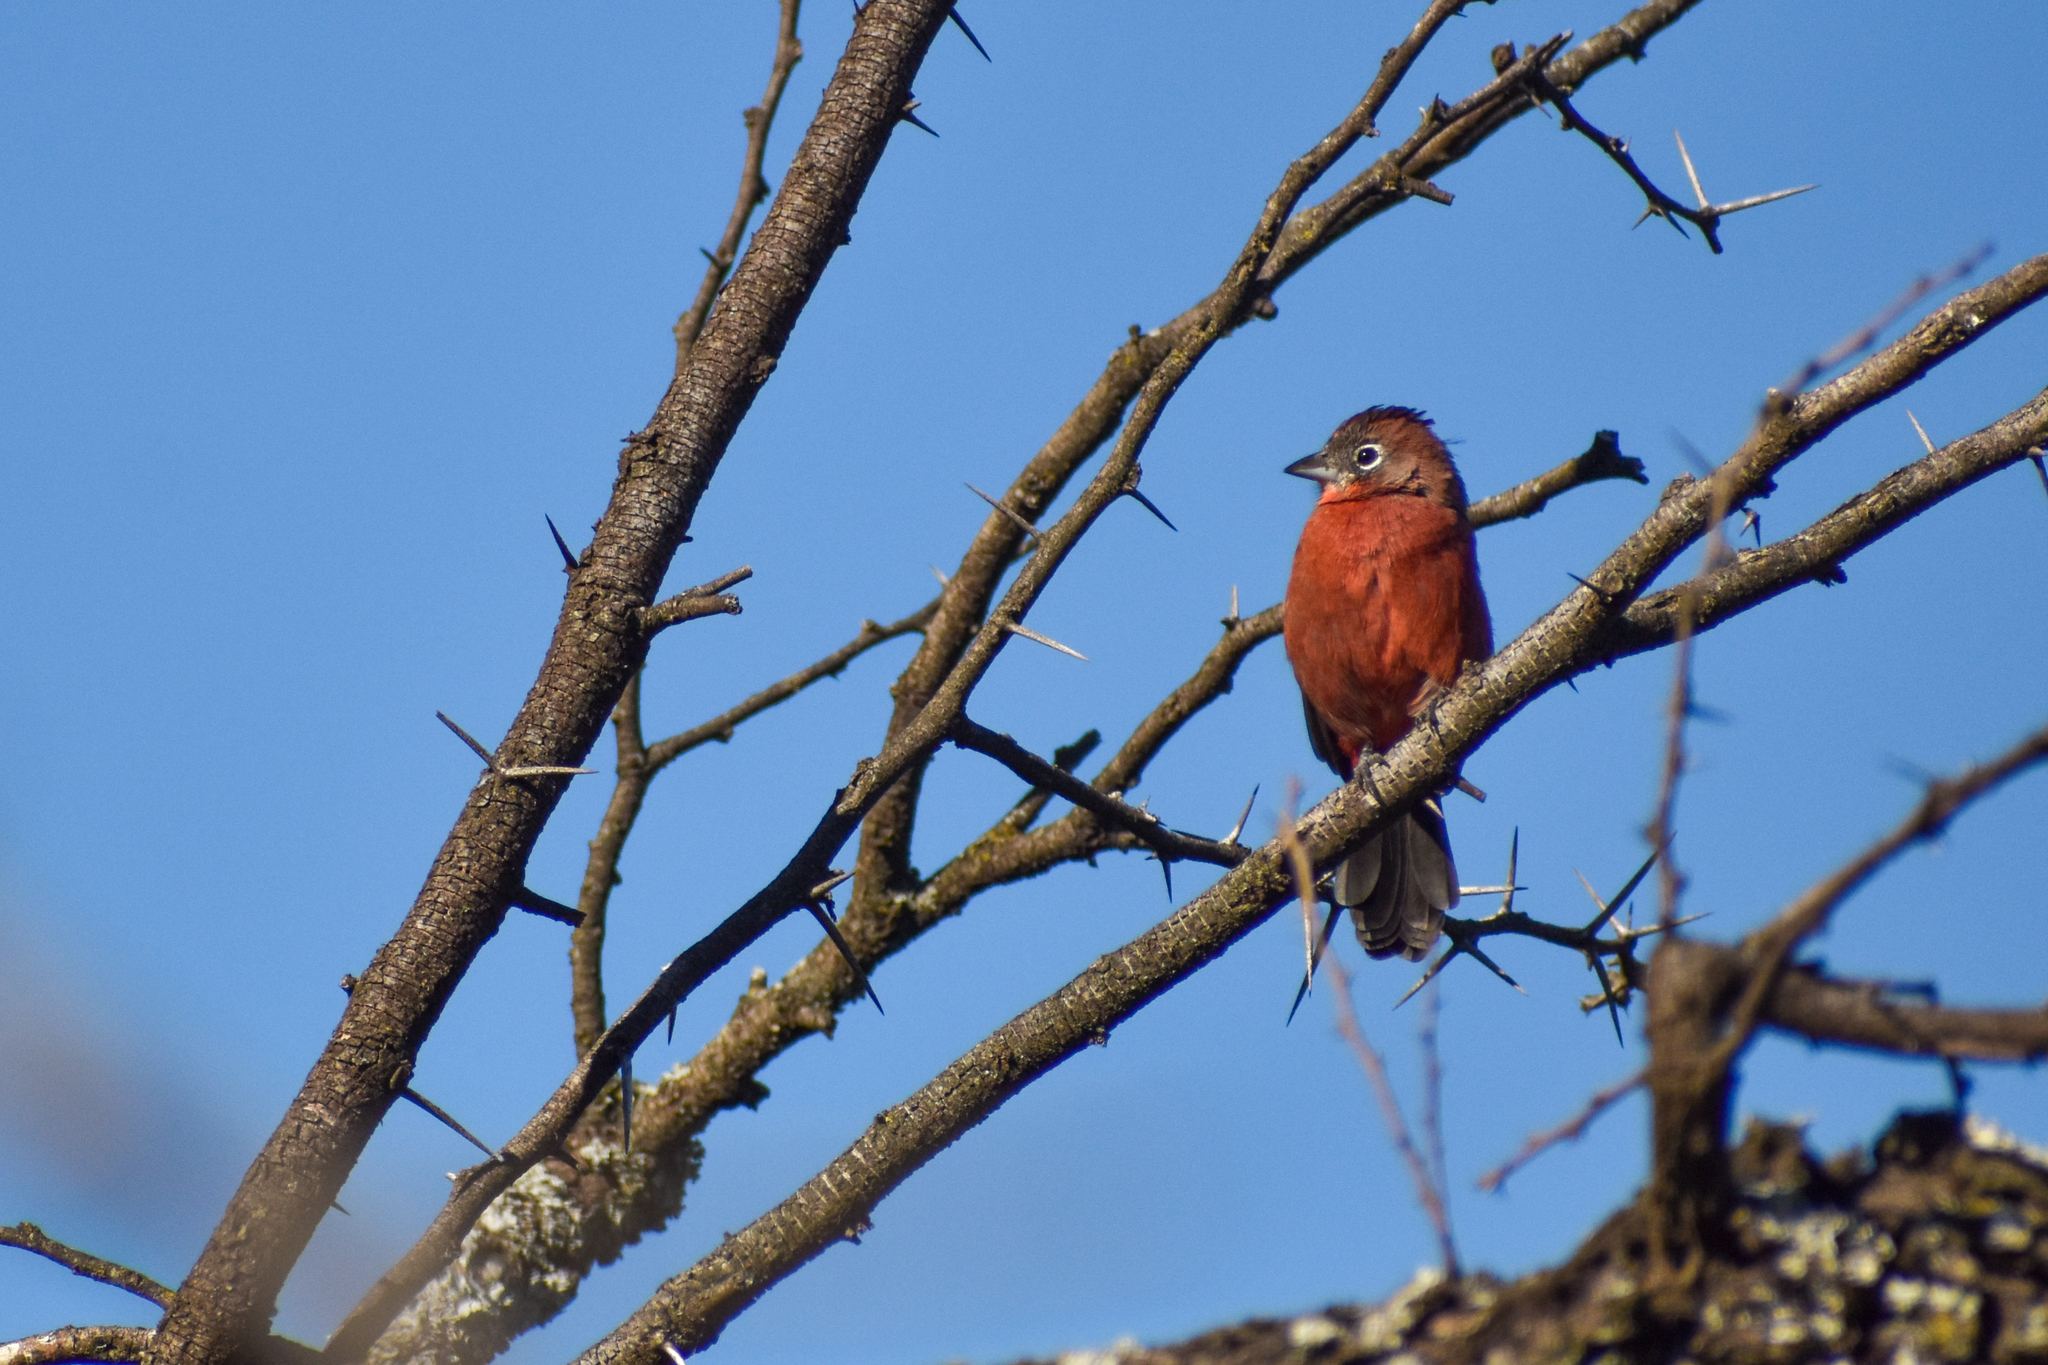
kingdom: Animalia
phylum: Chordata
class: Aves
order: Passeriformes
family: Thraupidae
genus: Coryphospingus
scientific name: Coryphospingus cucullatus
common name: Red pileated finch
